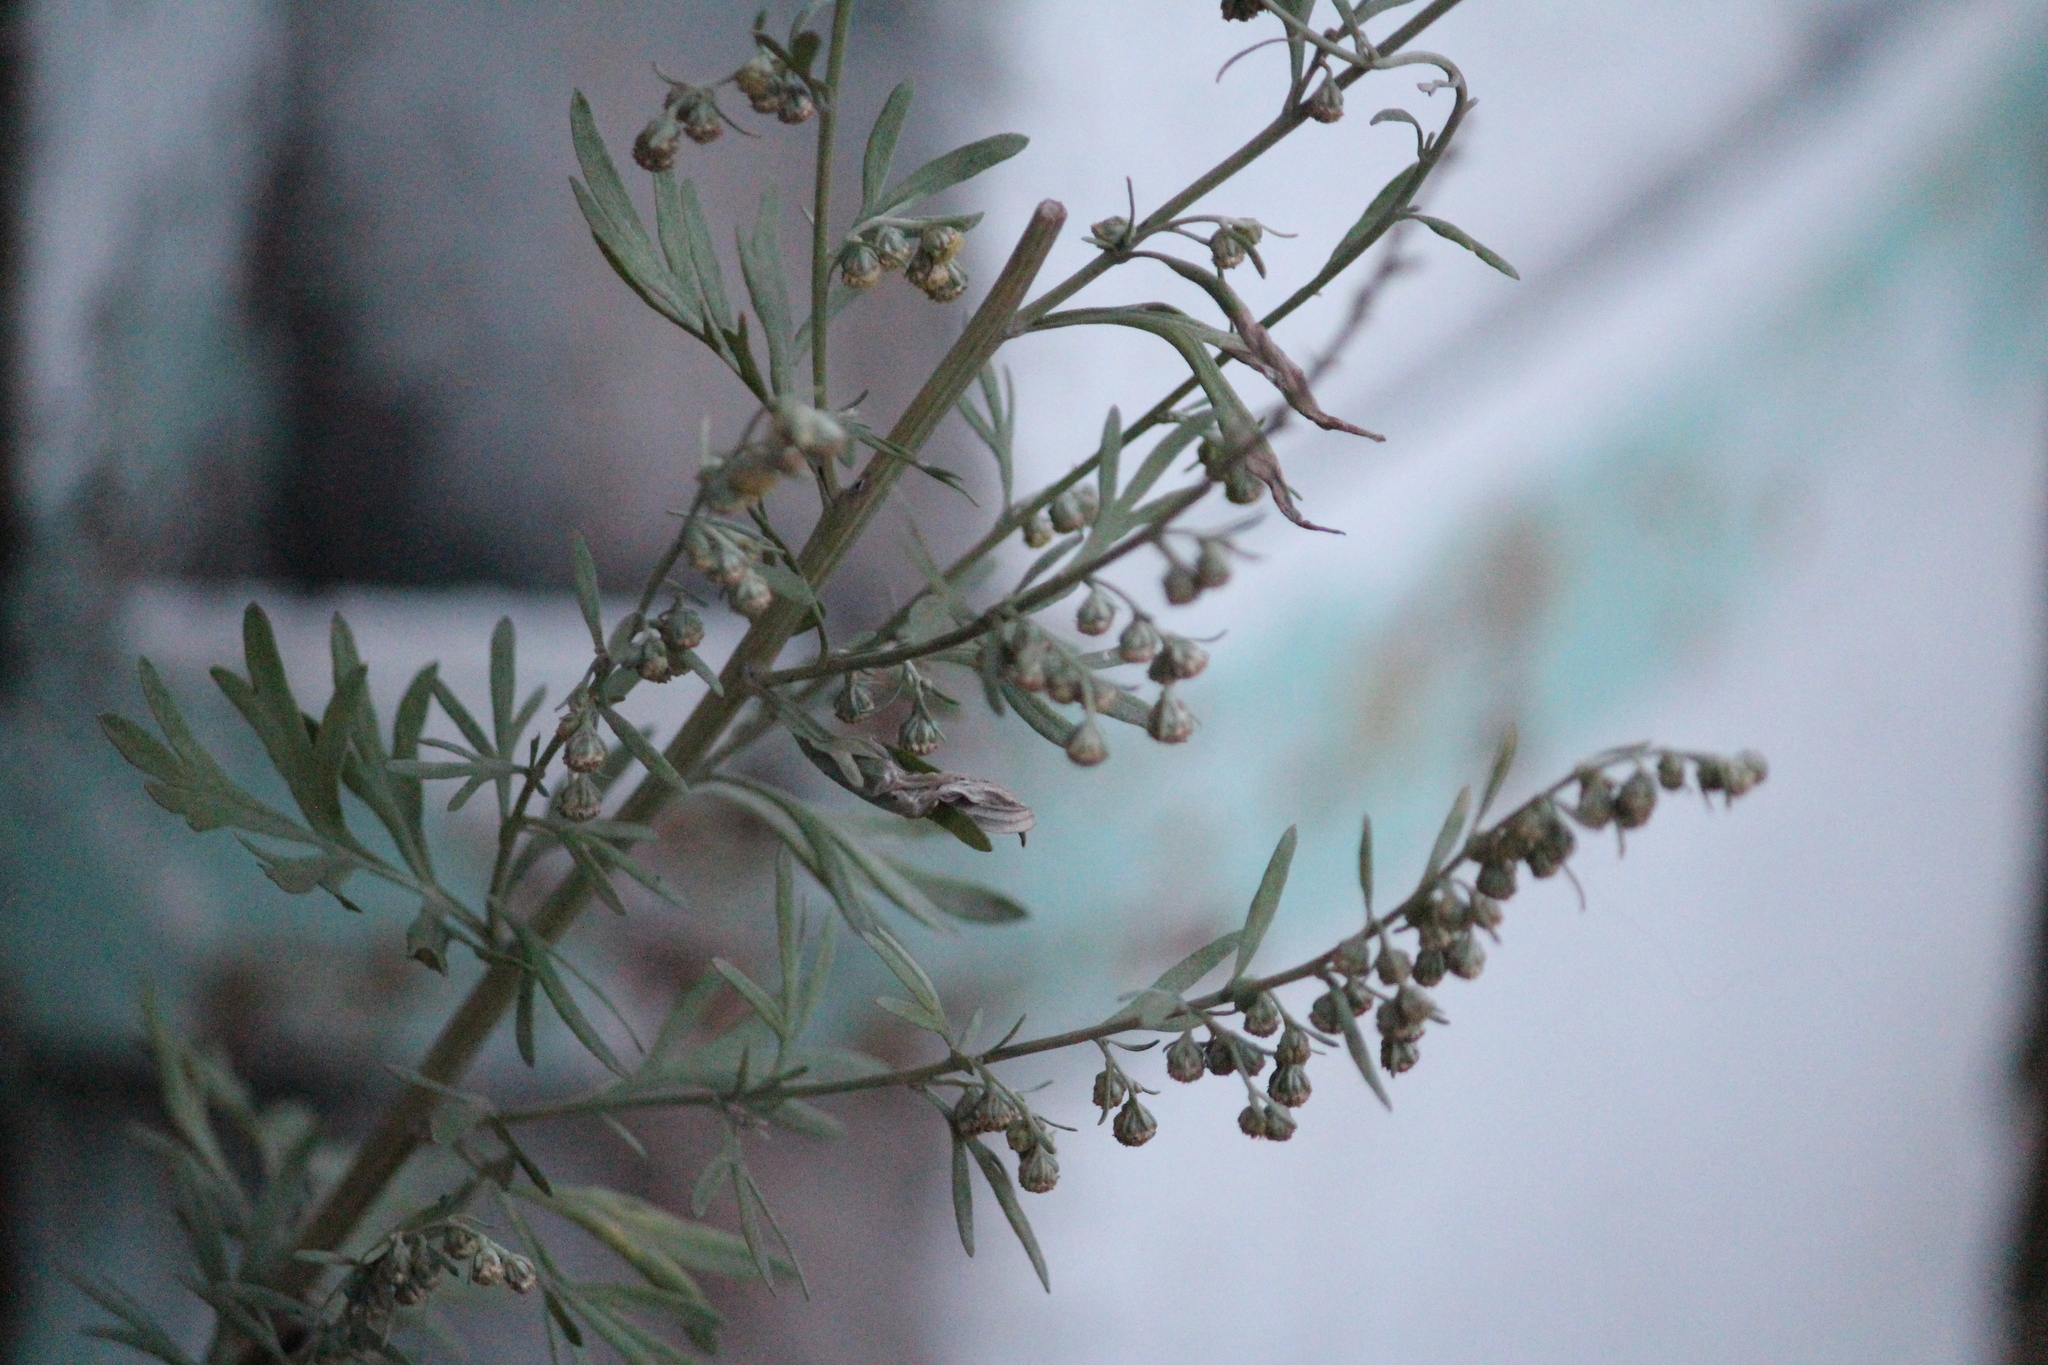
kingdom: Plantae
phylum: Tracheophyta
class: Magnoliopsida
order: Asterales
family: Asteraceae
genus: Artemisia
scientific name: Artemisia absinthium
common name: Wormwood
